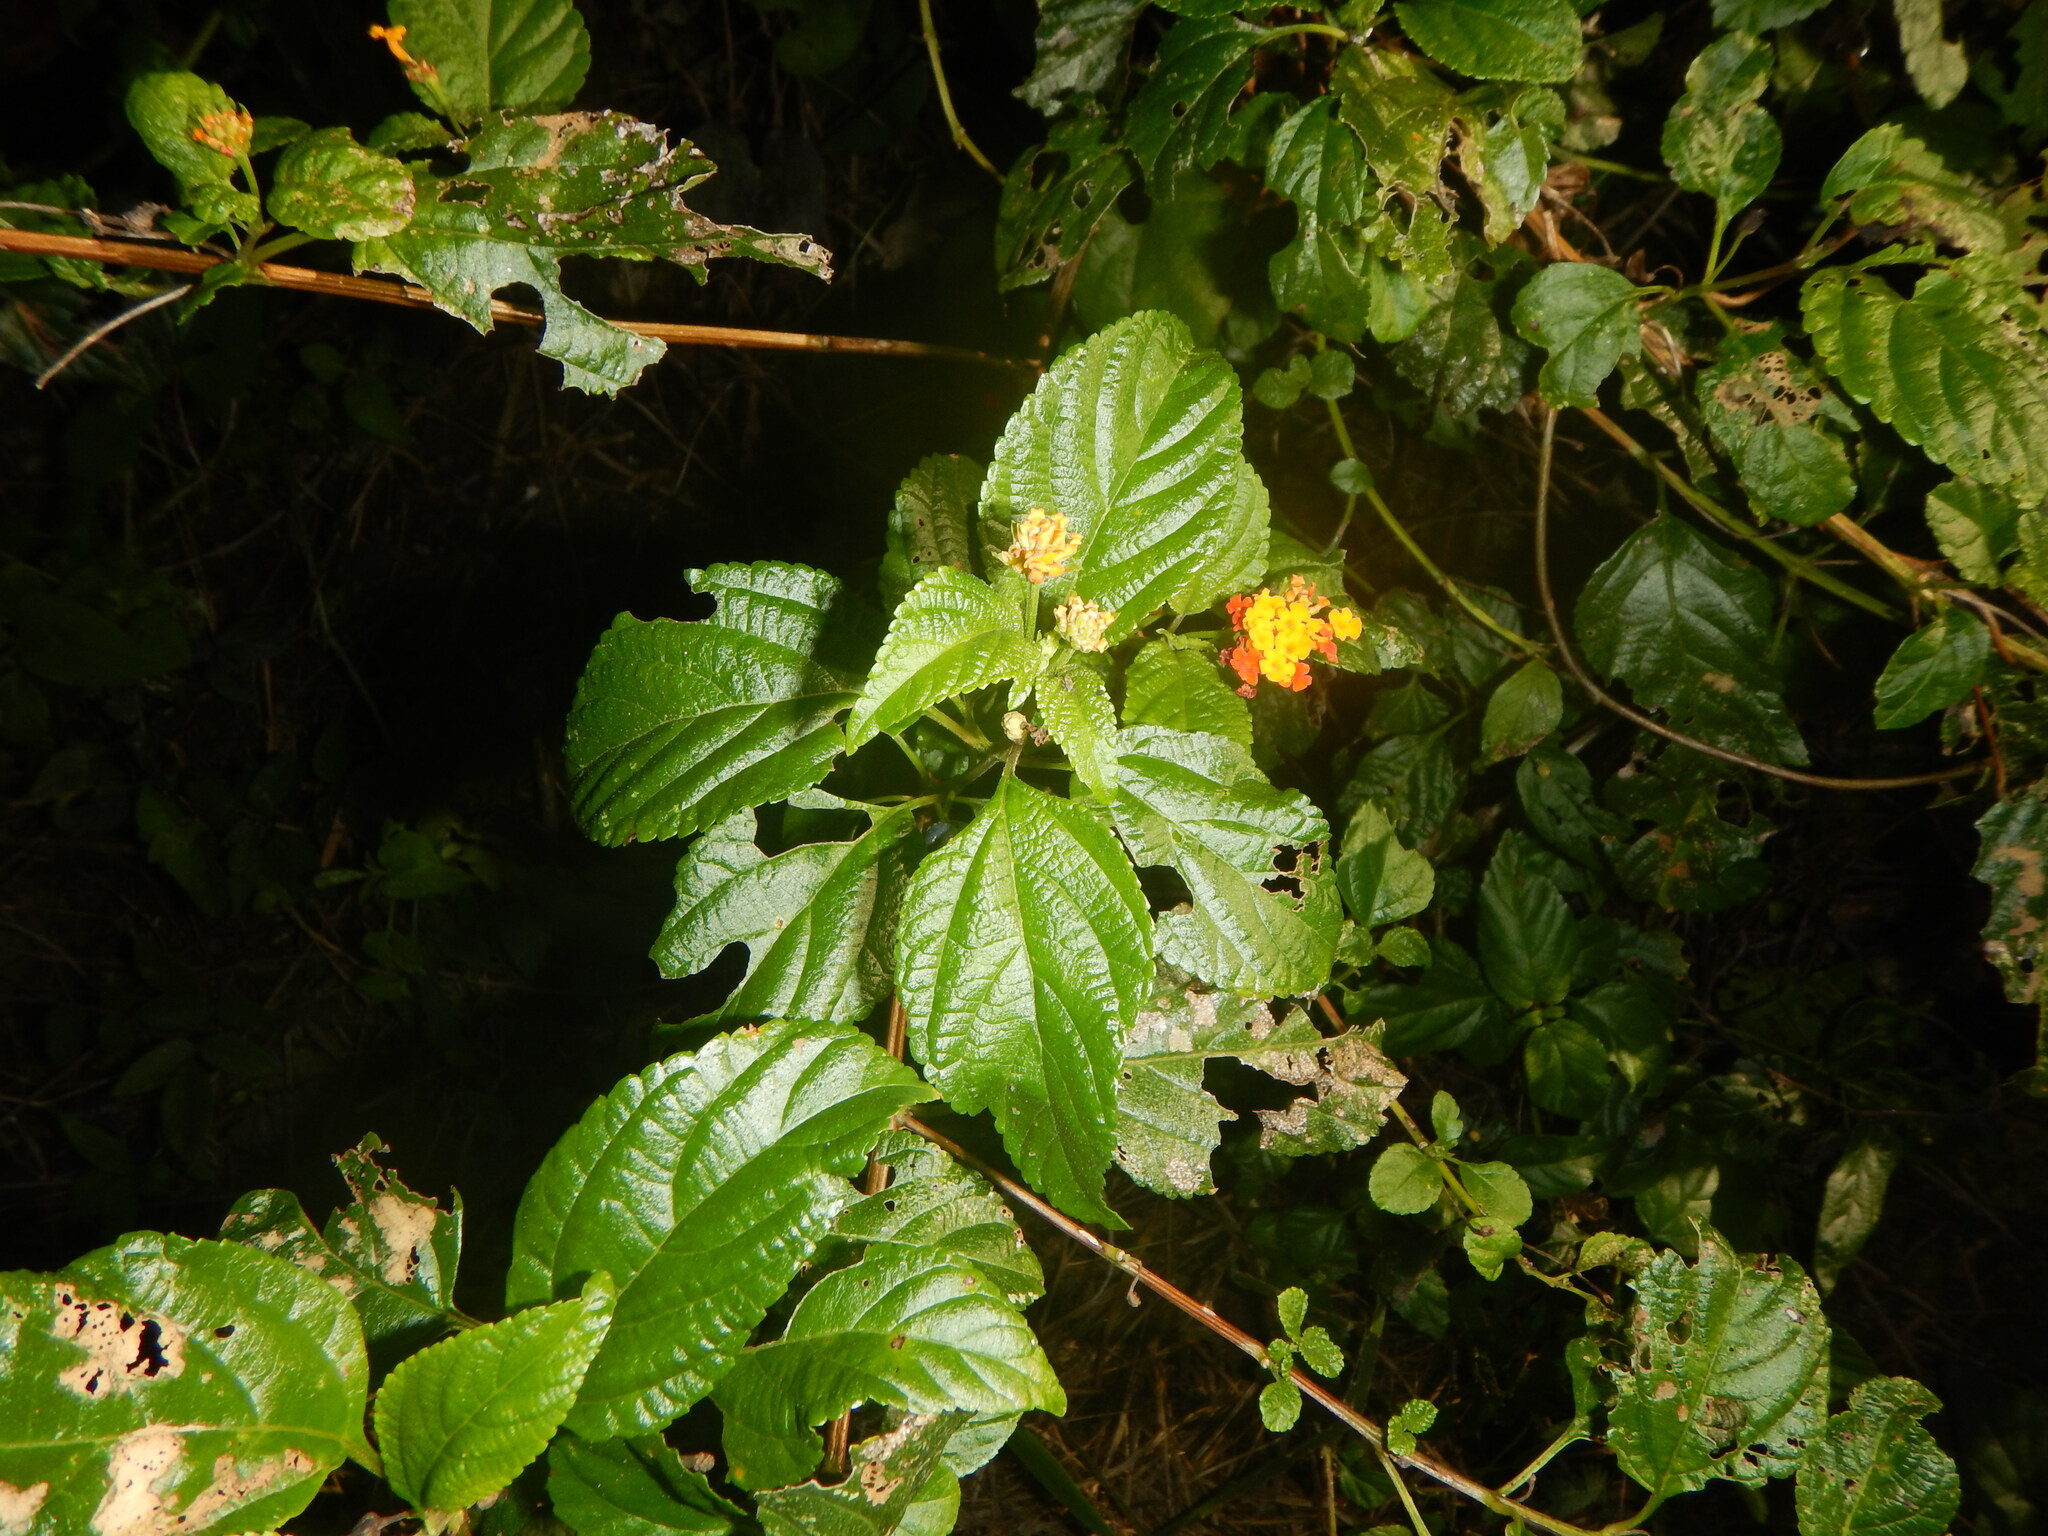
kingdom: Plantae
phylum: Tracheophyta
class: Magnoliopsida
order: Lamiales
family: Verbenaceae
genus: Lantana
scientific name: Lantana camara
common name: Lantana
